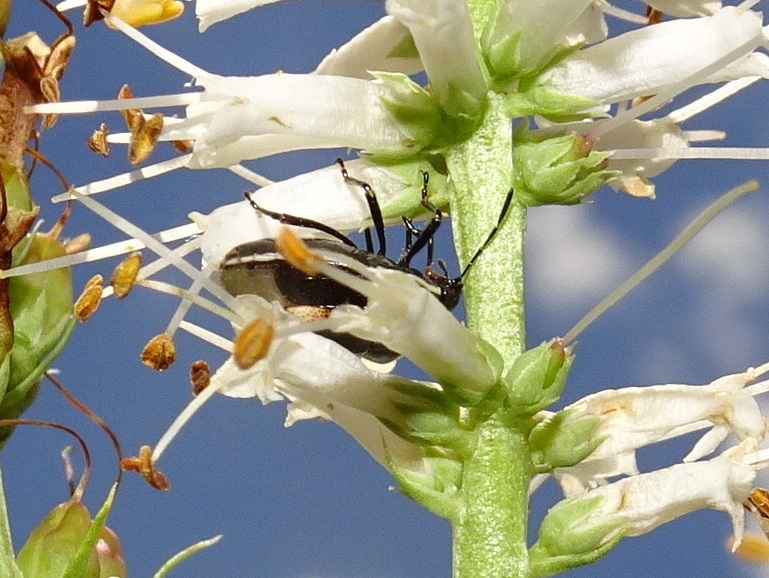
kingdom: Animalia
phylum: Arthropoda
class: Insecta
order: Hemiptera
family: Pentatomidae
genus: Cosmopepla
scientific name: Cosmopepla lintneriana
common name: Twice-stabbed stink bug
